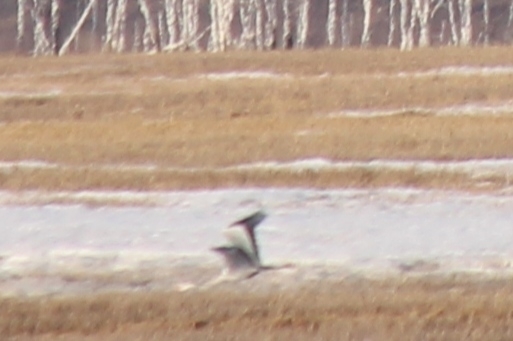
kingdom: Animalia
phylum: Chordata
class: Aves
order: Pelecaniformes
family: Ardeidae
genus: Ardea
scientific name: Ardea cinerea
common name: Grey heron
